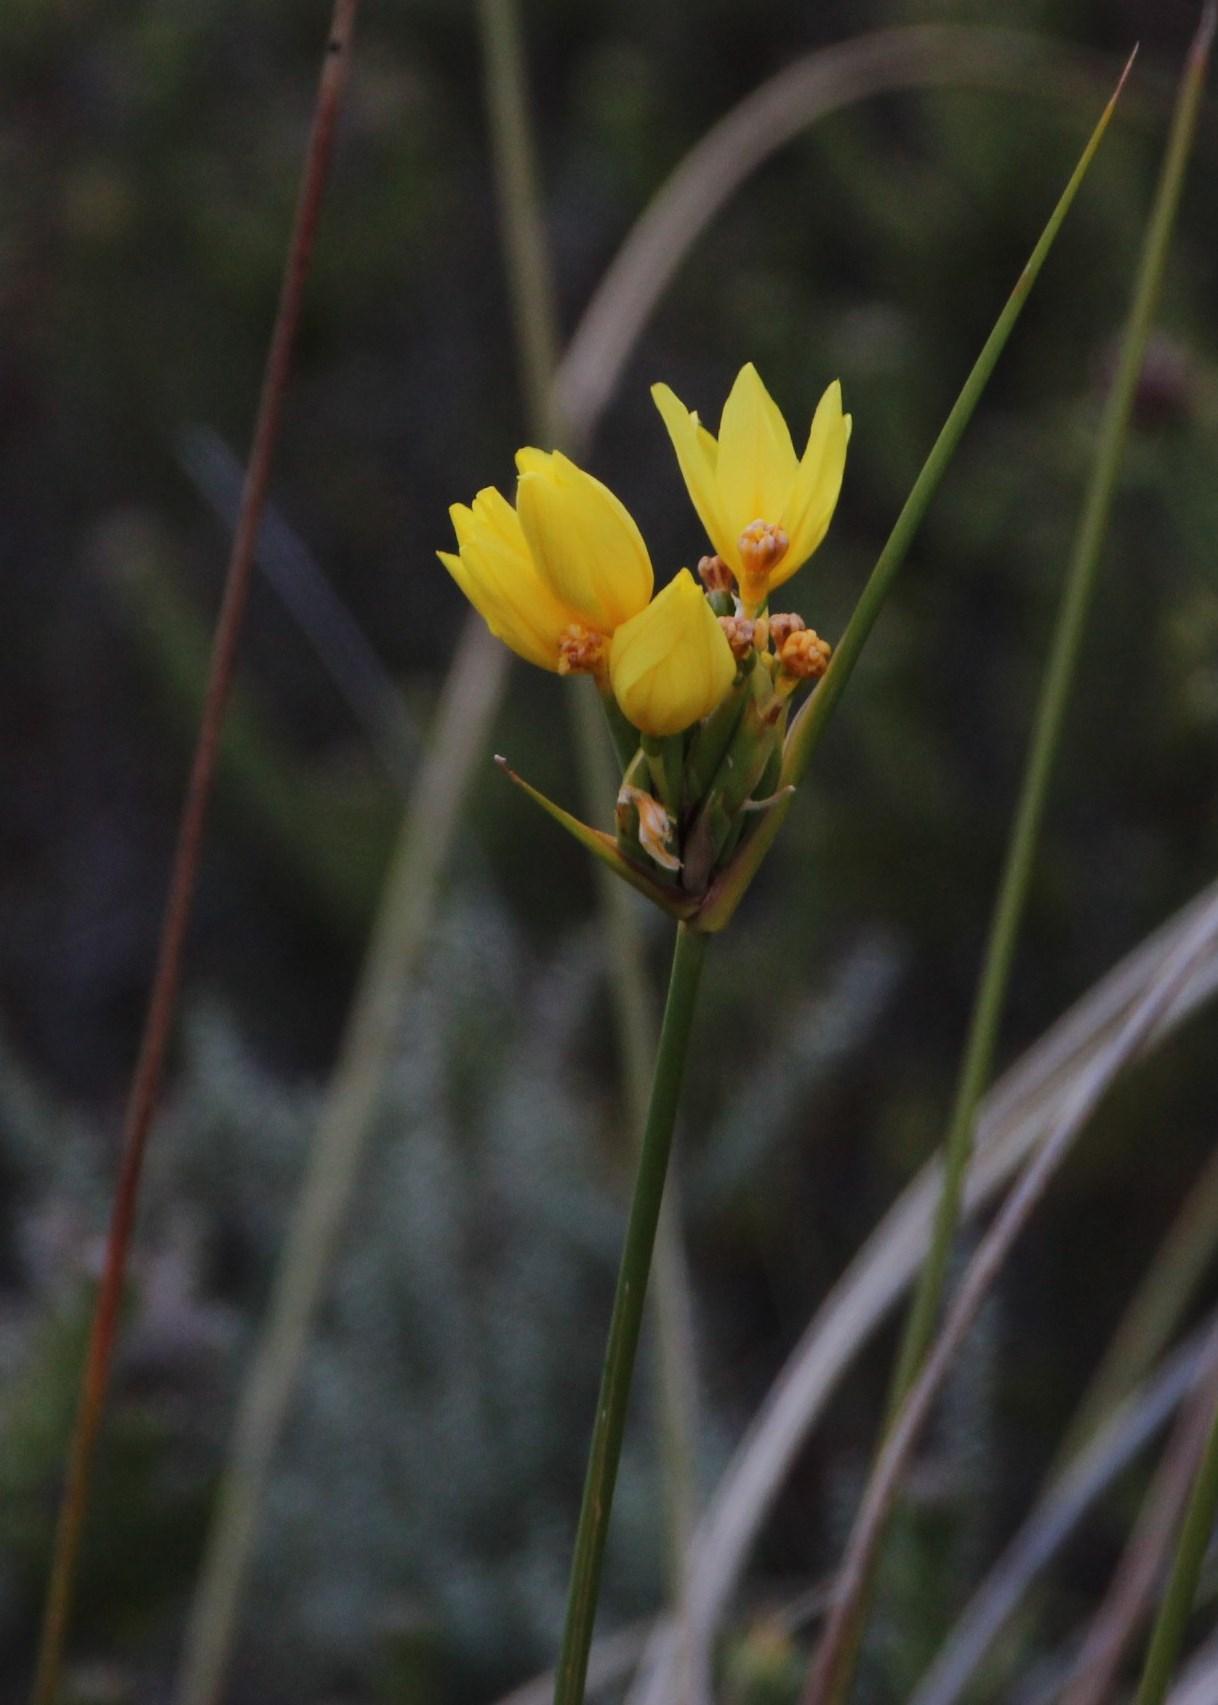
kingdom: Plantae
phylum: Tracheophyta
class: Liliopsida
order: Asparagales
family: Iridaceae
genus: Bobartia
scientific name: Bobartia indica
